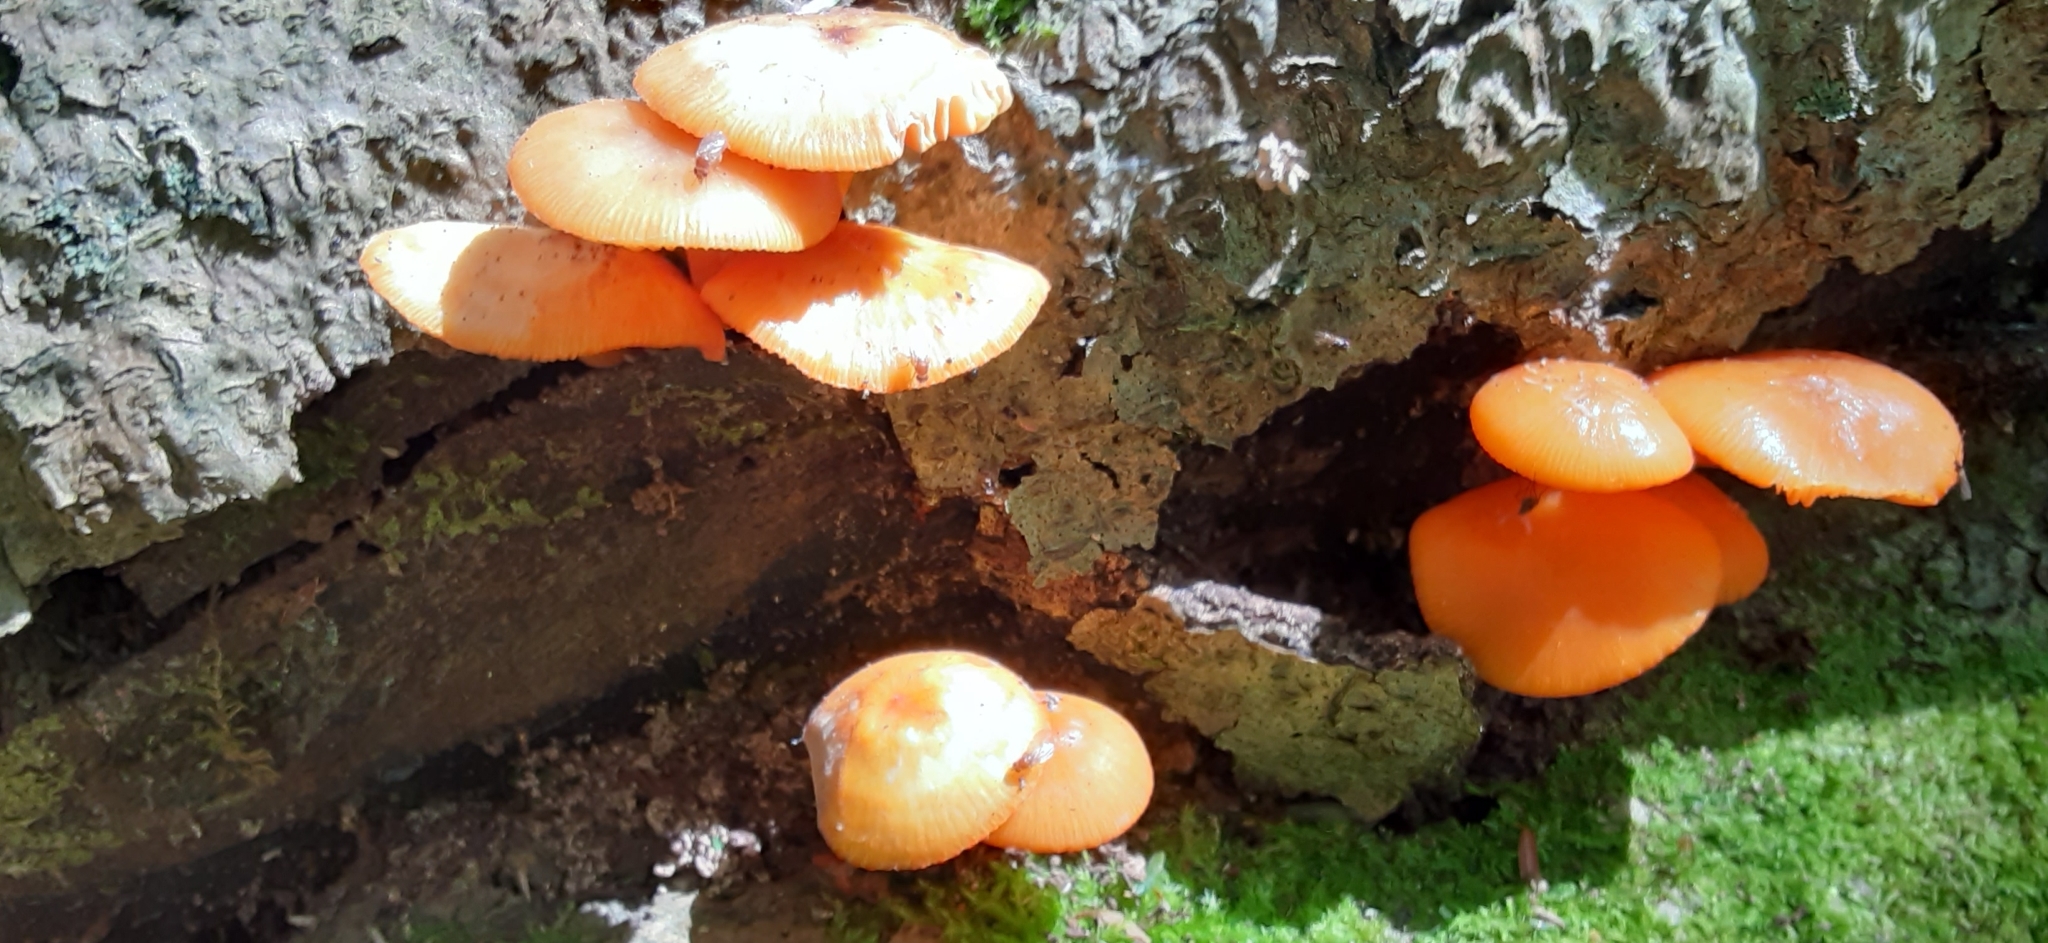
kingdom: Fungi
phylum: Basidiomycota
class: Agaricomycetes
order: Agaricales
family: Mycenaceae
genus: Mycena
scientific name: Mycena leaiana
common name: Orange mycena
